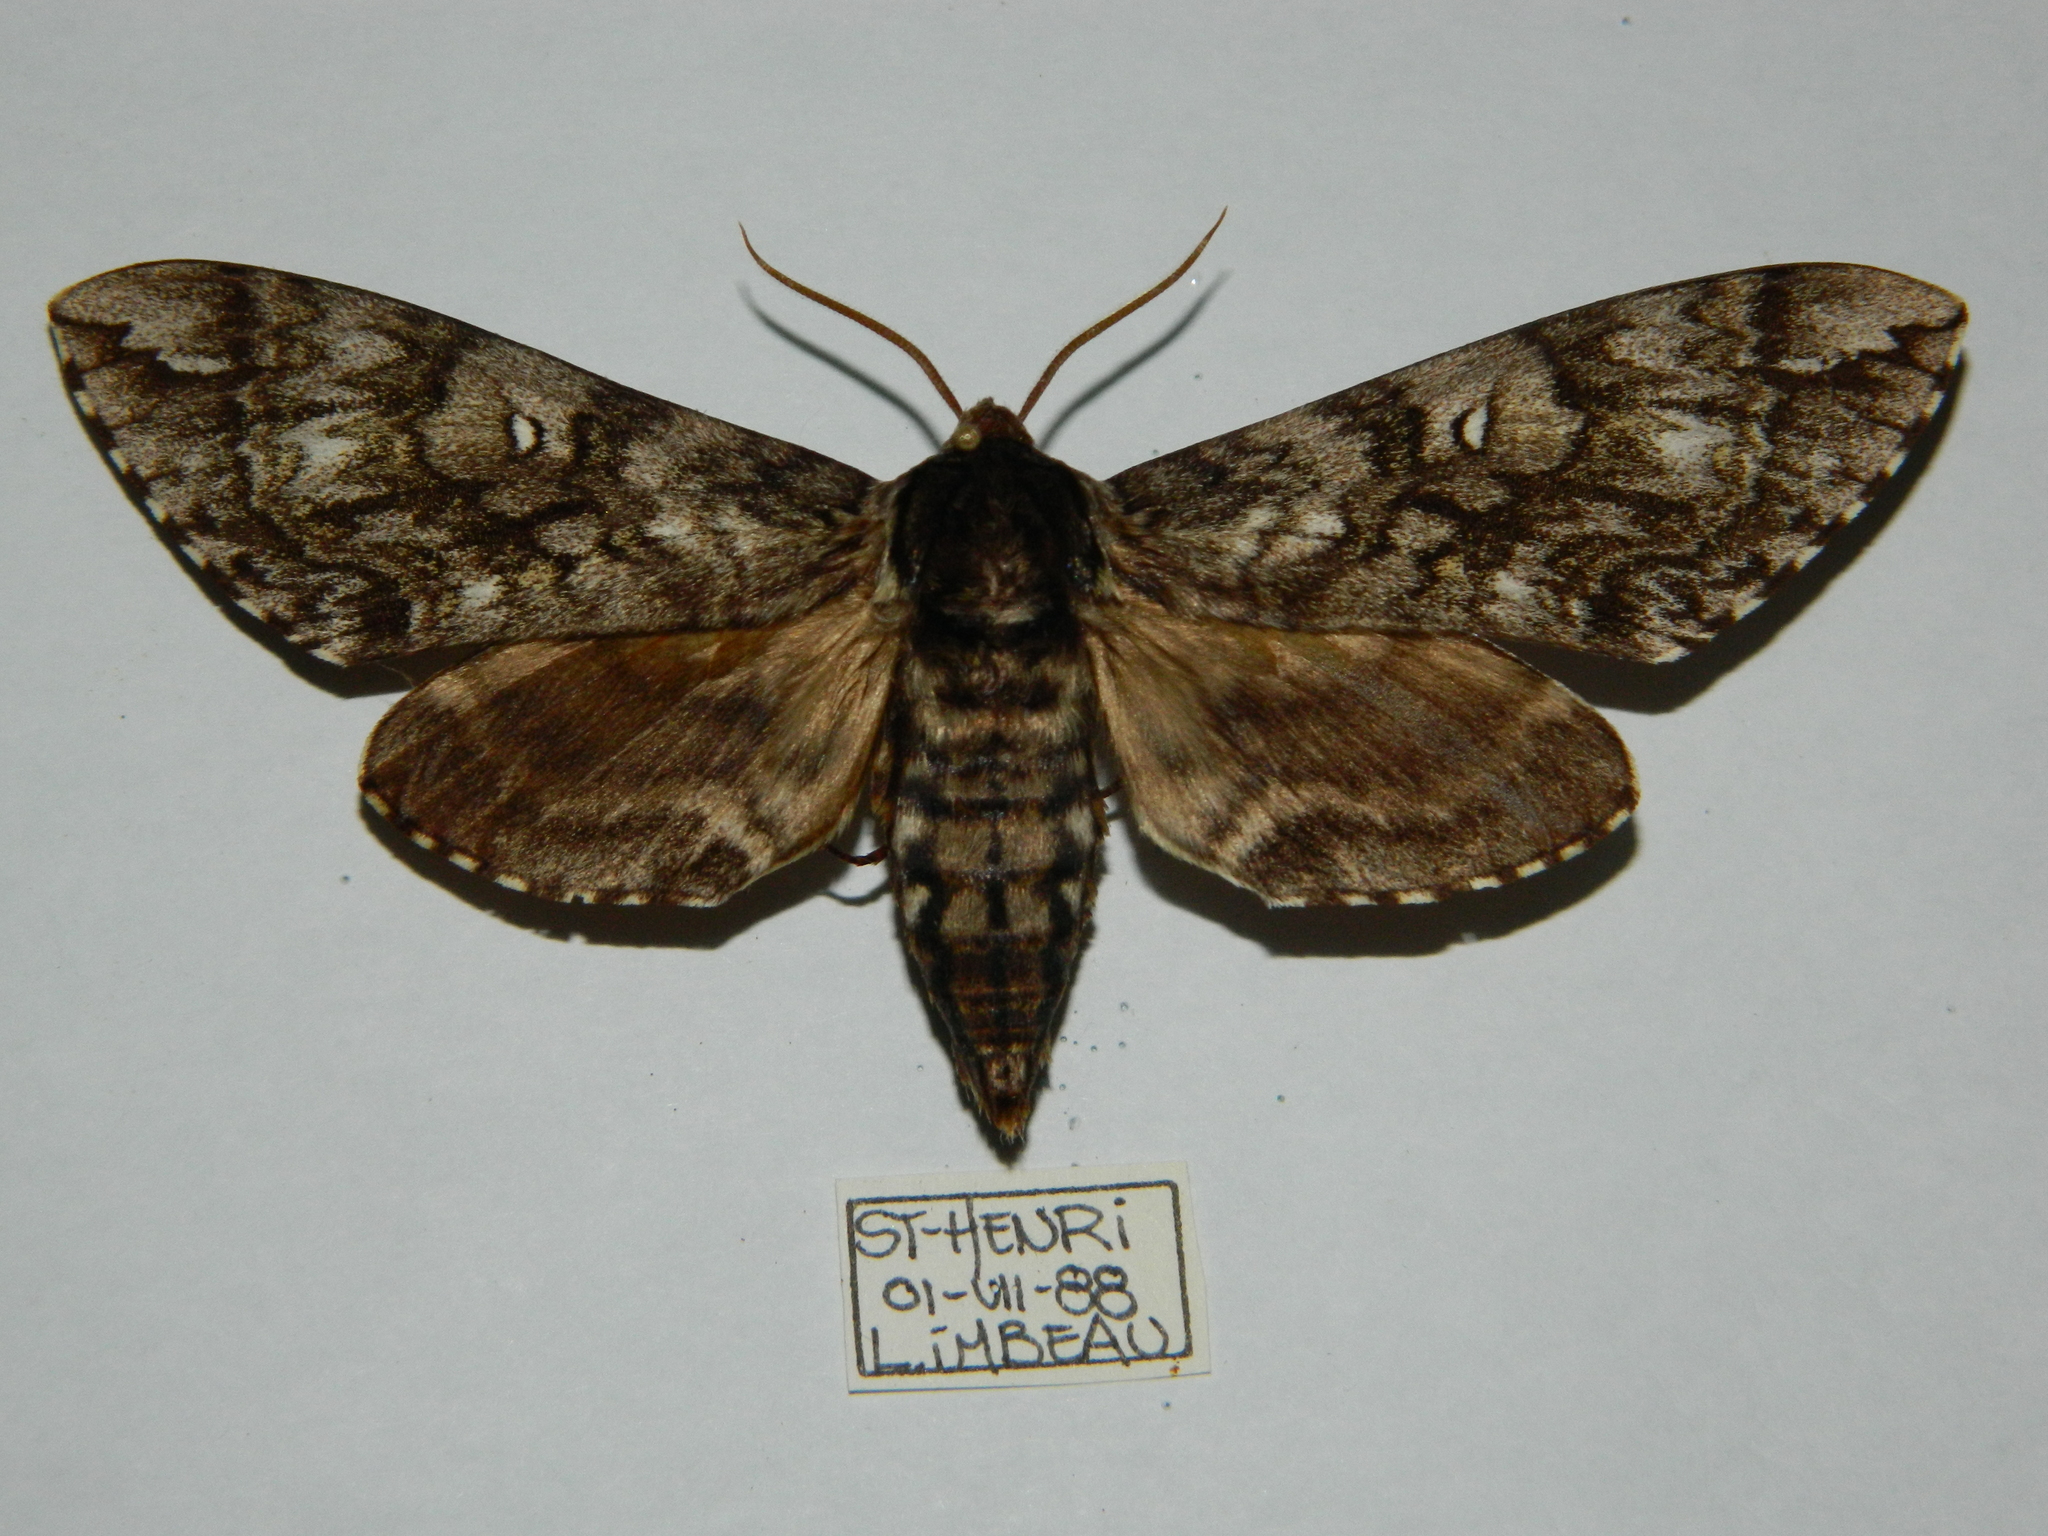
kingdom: Animalia
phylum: Arthropoda
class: Insecta
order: Lepidoptera
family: Sphingidae
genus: Ceratomia
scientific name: Ceratomia undulosa
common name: Waved sphinx
